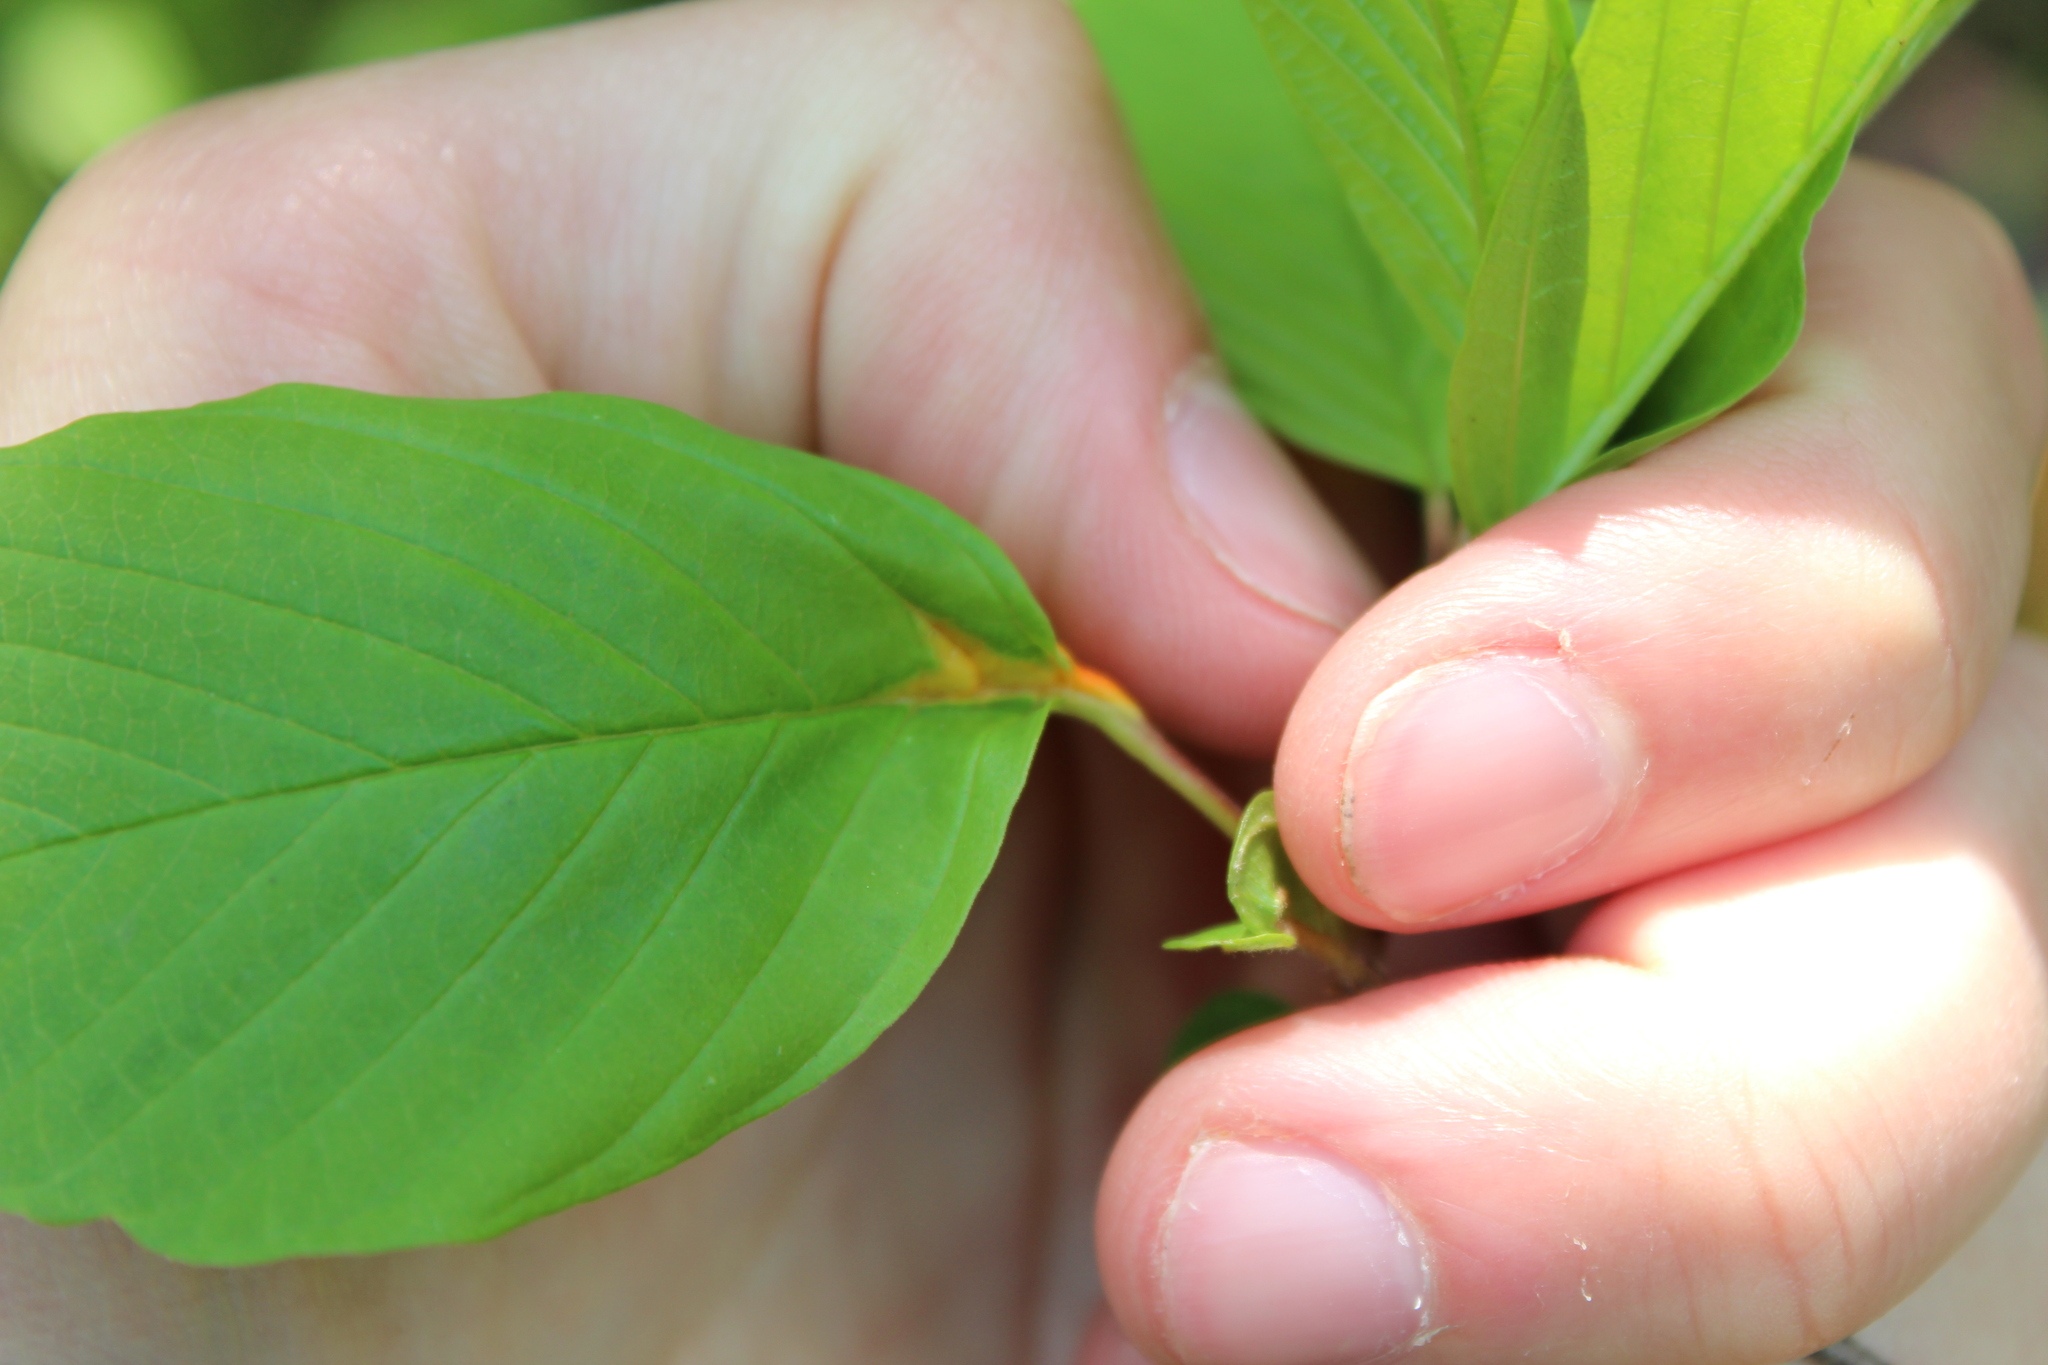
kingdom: Fungi
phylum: Basidiomycota
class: Pucciniomycetes
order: Pucciniales
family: Pucciniaceae
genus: Puccinia
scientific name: Puccinia coronata
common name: Crown rust
